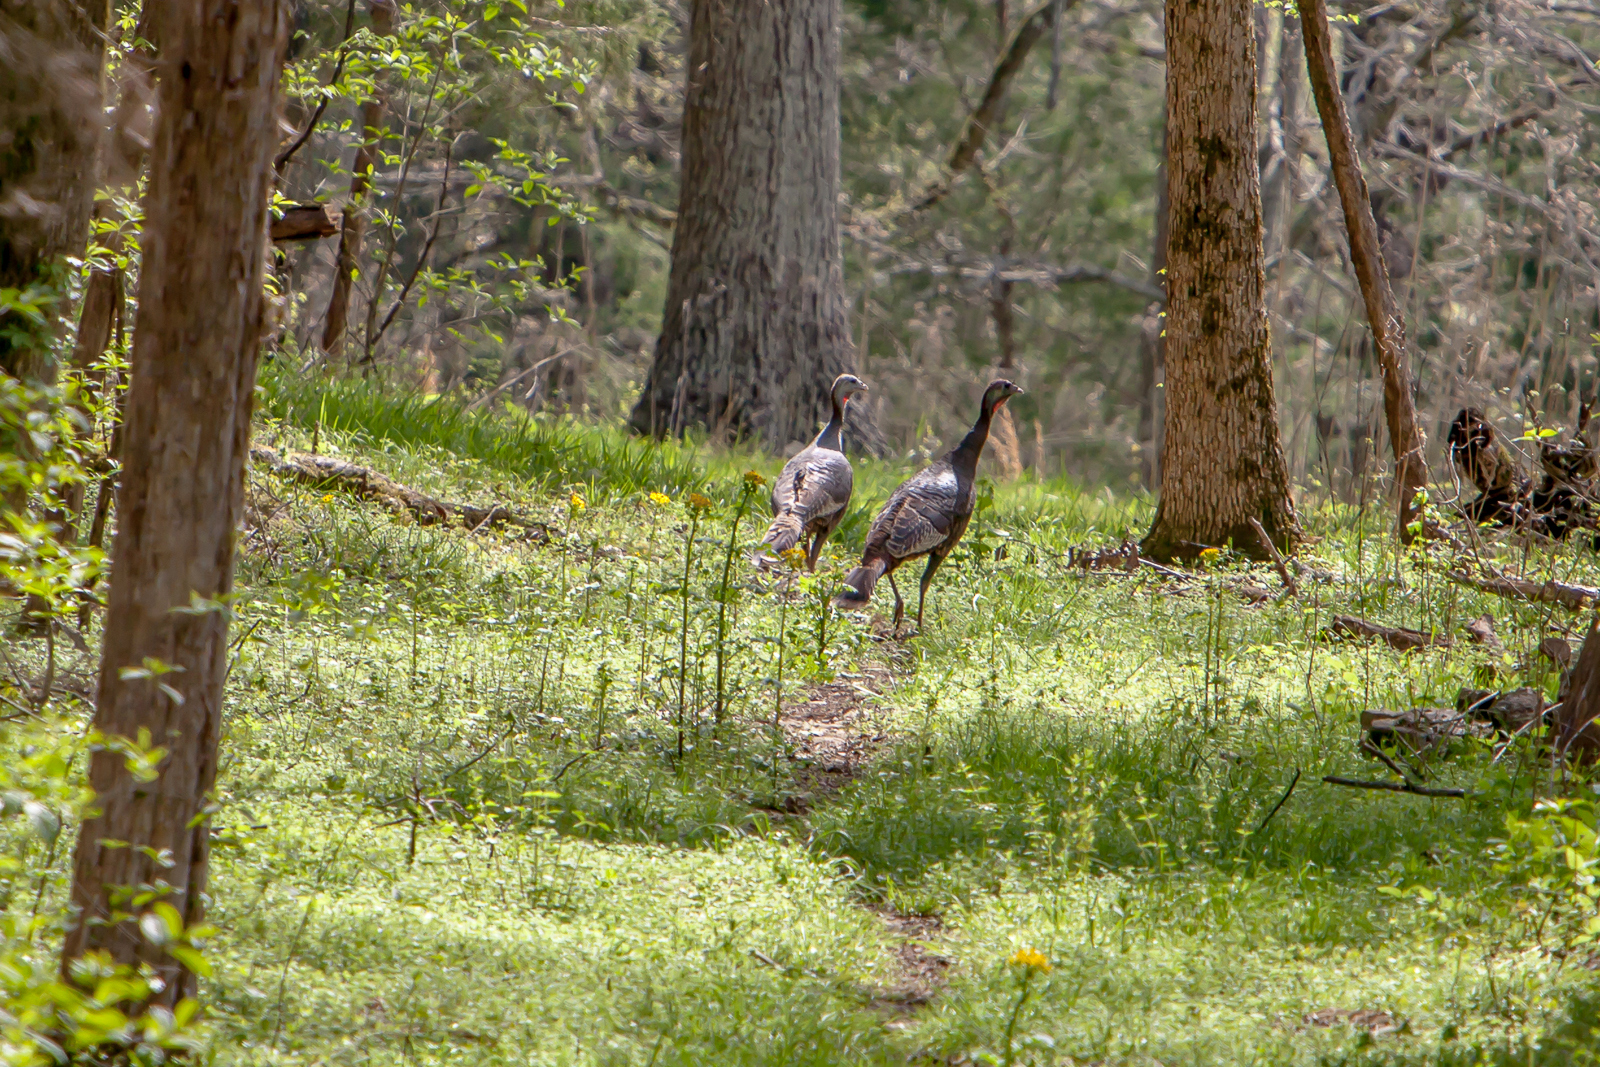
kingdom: Animalia
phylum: Chordata
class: Aves
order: Galliformes
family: Phasianidae
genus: Meleagris
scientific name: Meleagris gallopavo
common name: Wild turkey
